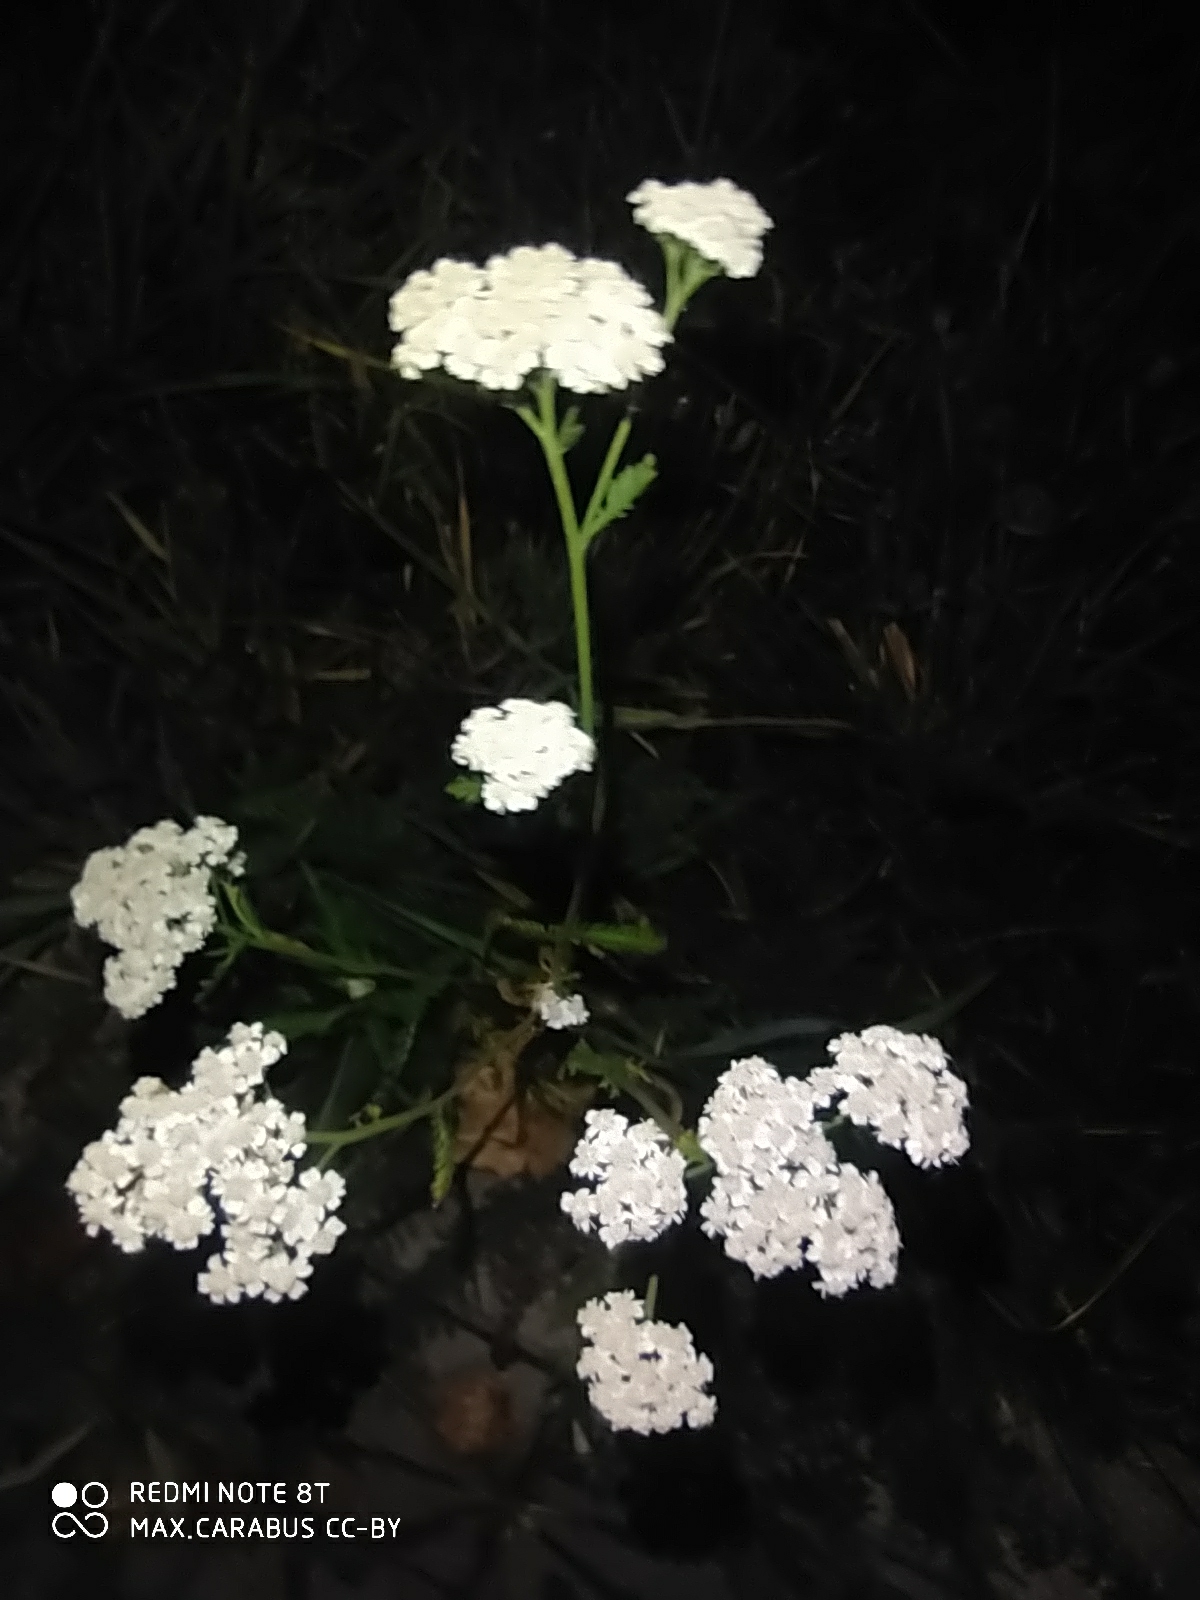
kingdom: Plantae
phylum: Tracheophyta
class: Magnoliopsida
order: Asterales
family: Asteraceae
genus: Achillea
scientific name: Achillea millefolium
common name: Yarrow
